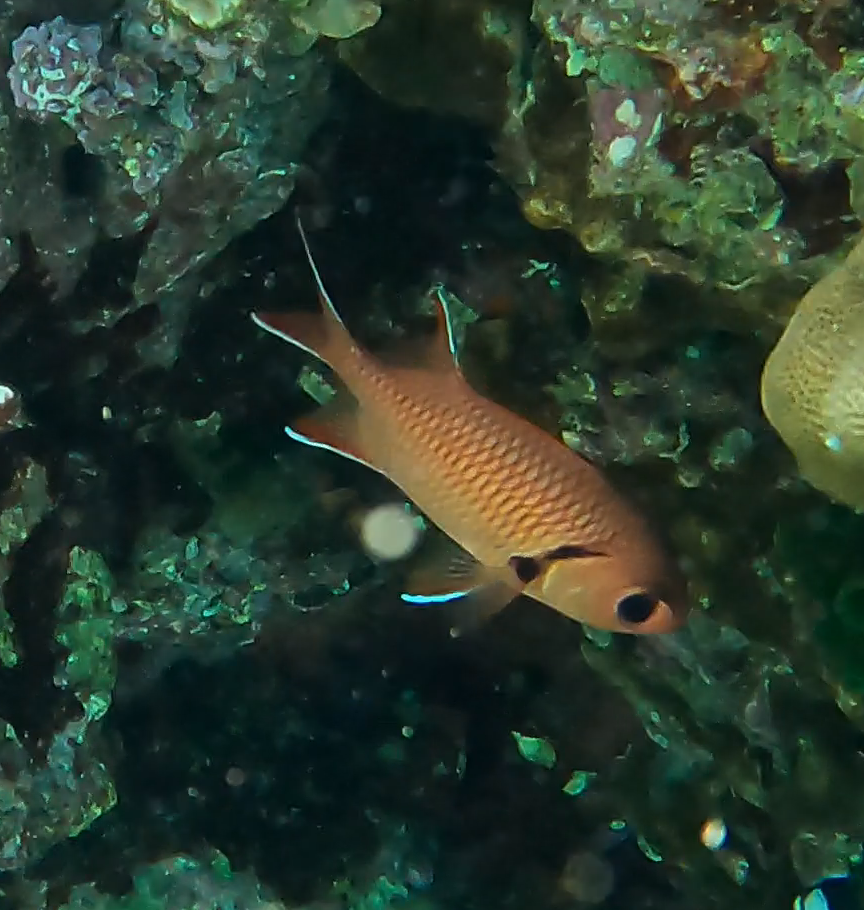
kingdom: Animalia
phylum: Chordata
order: Beryciformes
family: Holocentridae
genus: Myripristis
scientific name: Myripristis murdjan
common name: Big-eye soldierfish
